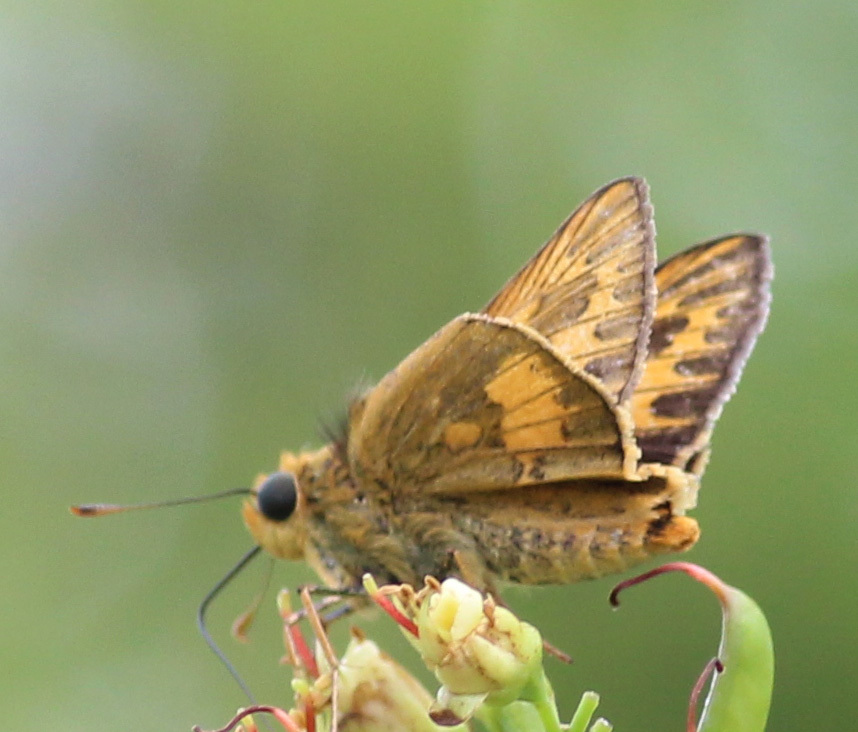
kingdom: Animalia
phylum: Arthropoda
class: Insecta
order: Lepidoptera
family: Hesperiidae
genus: Telicota
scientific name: Telicota colon
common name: Pale palm dart
